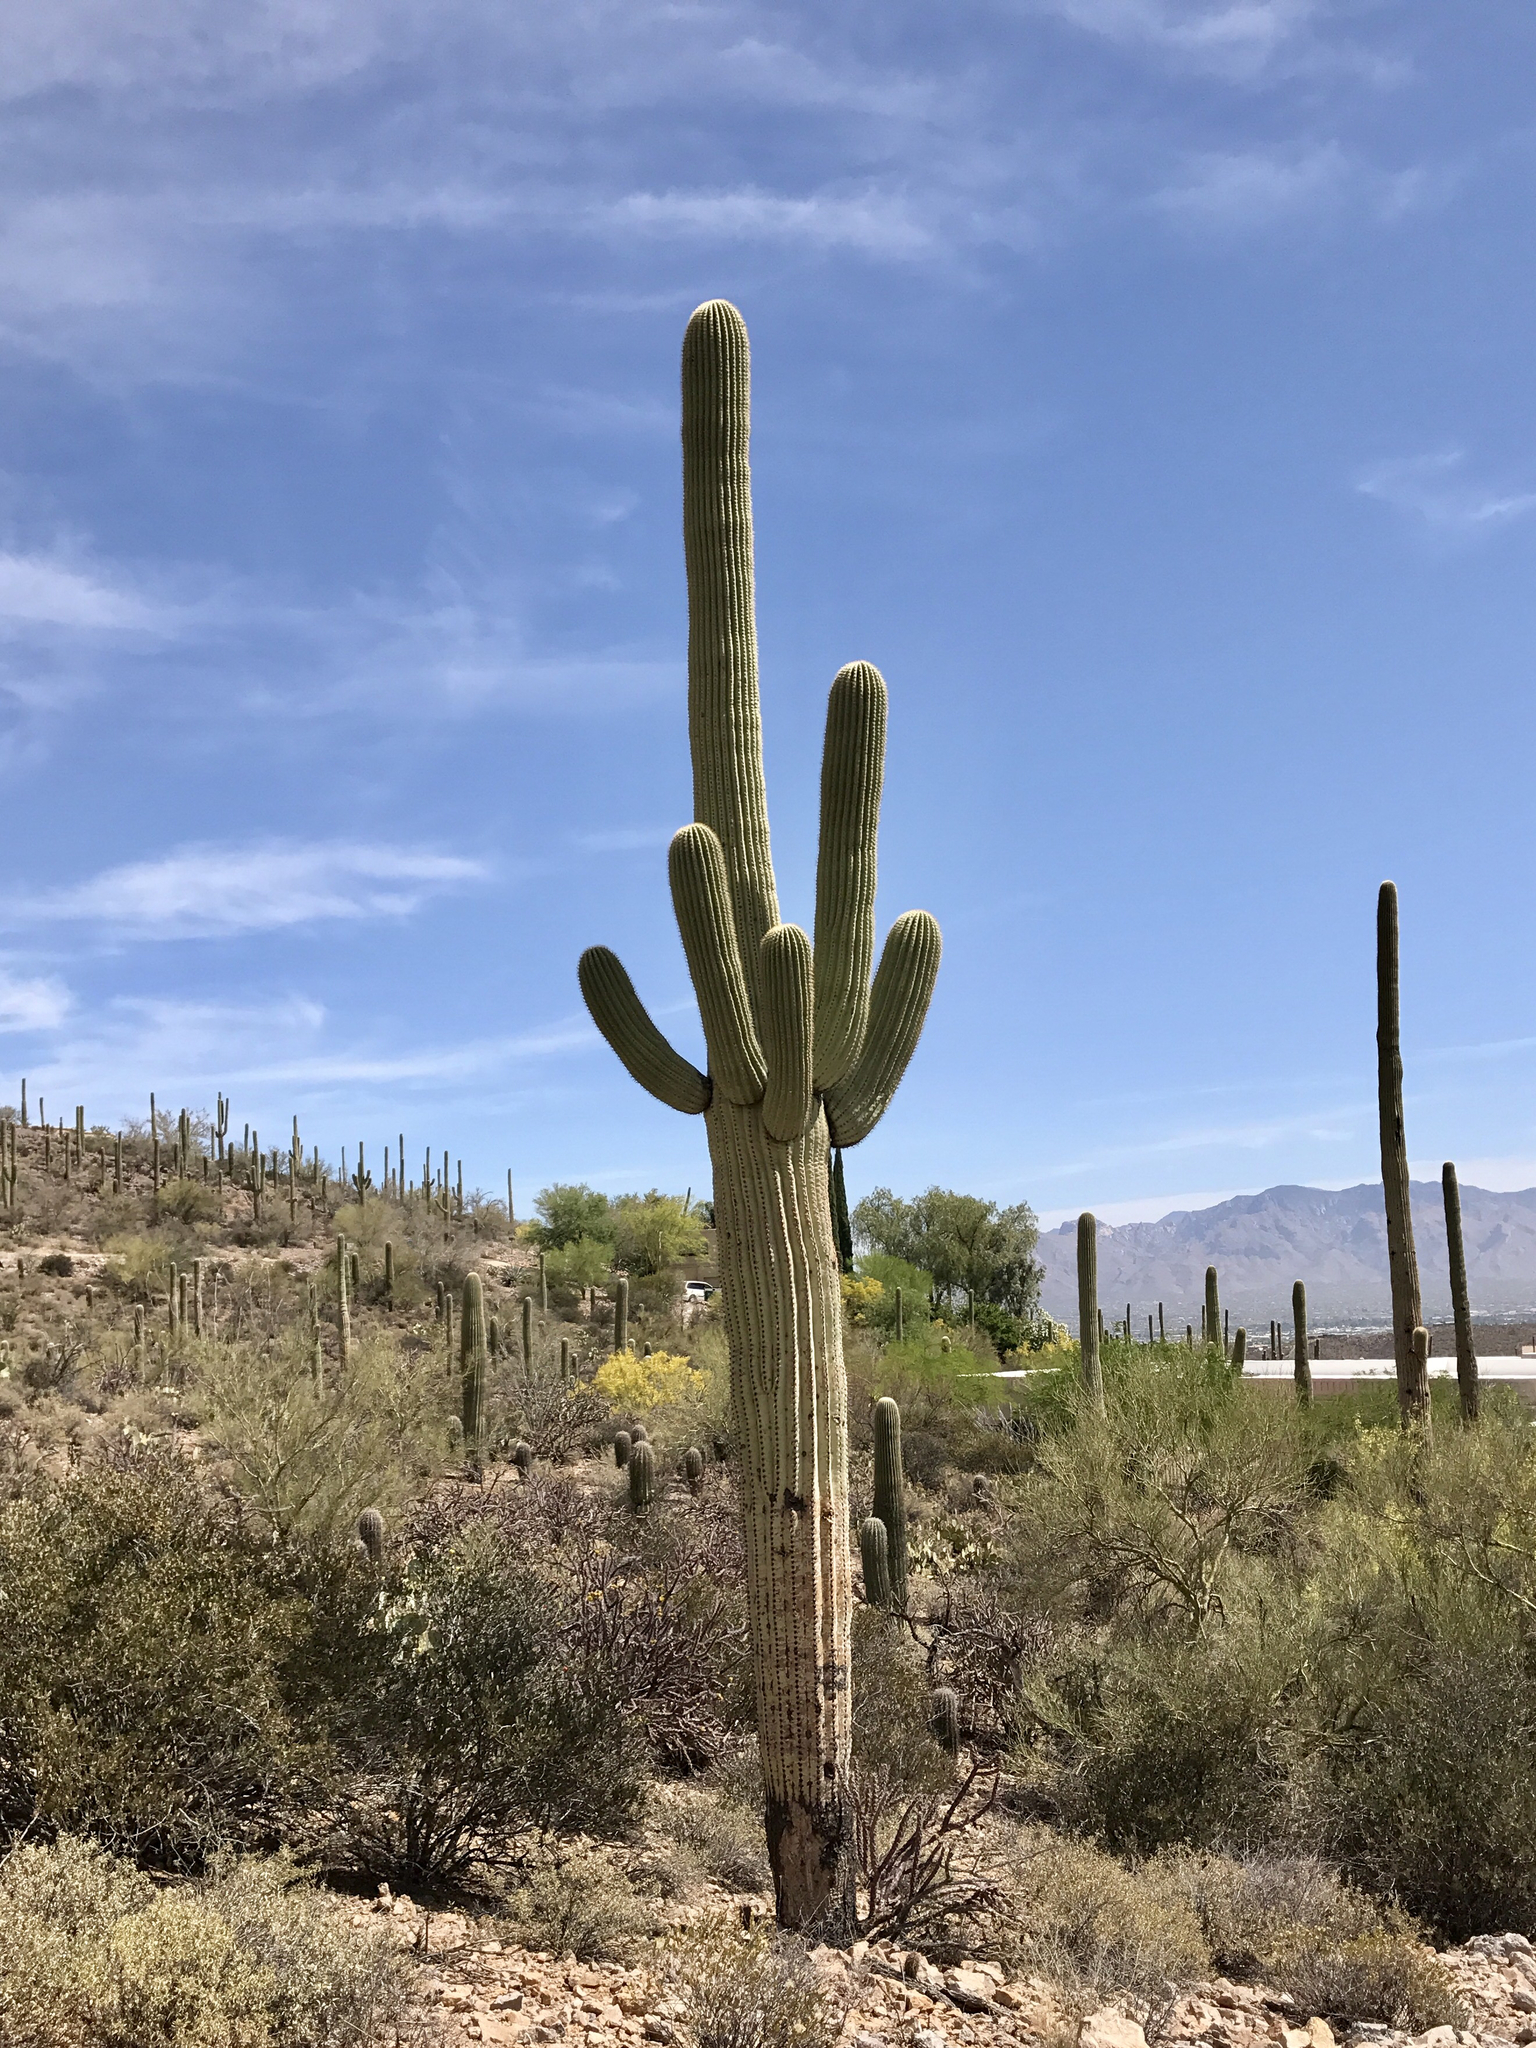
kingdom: Plantae
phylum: Tracheophyta
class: Magnoliopsida
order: Caryophyllales
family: Cactaceae
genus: Carnegiea
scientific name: Carnegiea gigantea
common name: Saguaro
